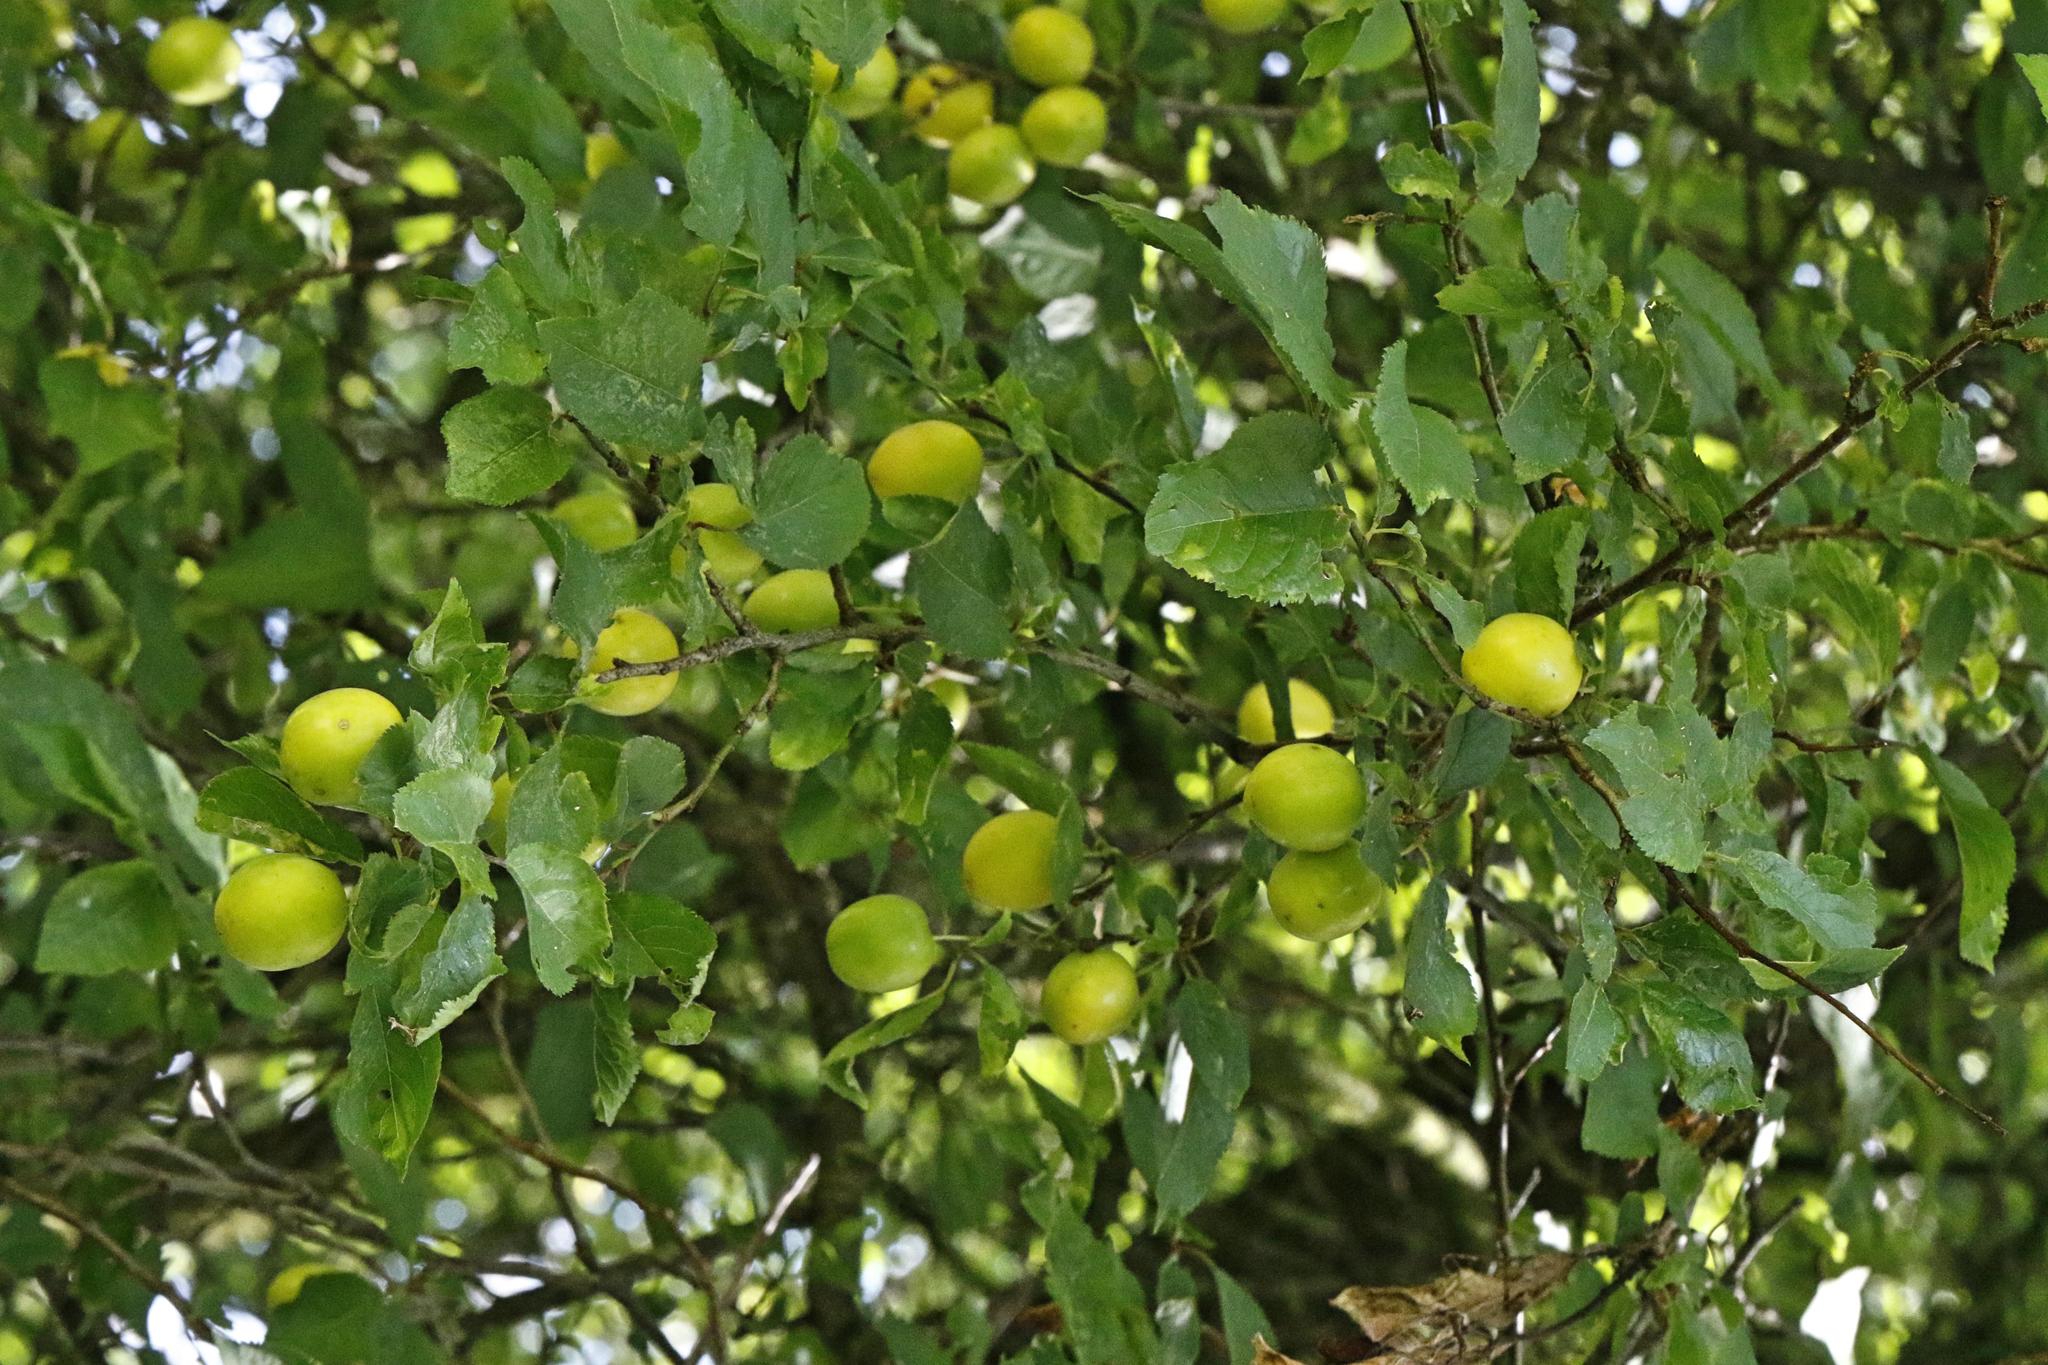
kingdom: Plantae
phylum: Tracheophyta
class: Magnoliopsida
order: Rosales
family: Rosaceae
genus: Prunus
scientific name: Prunus domestica
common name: Wild plum
